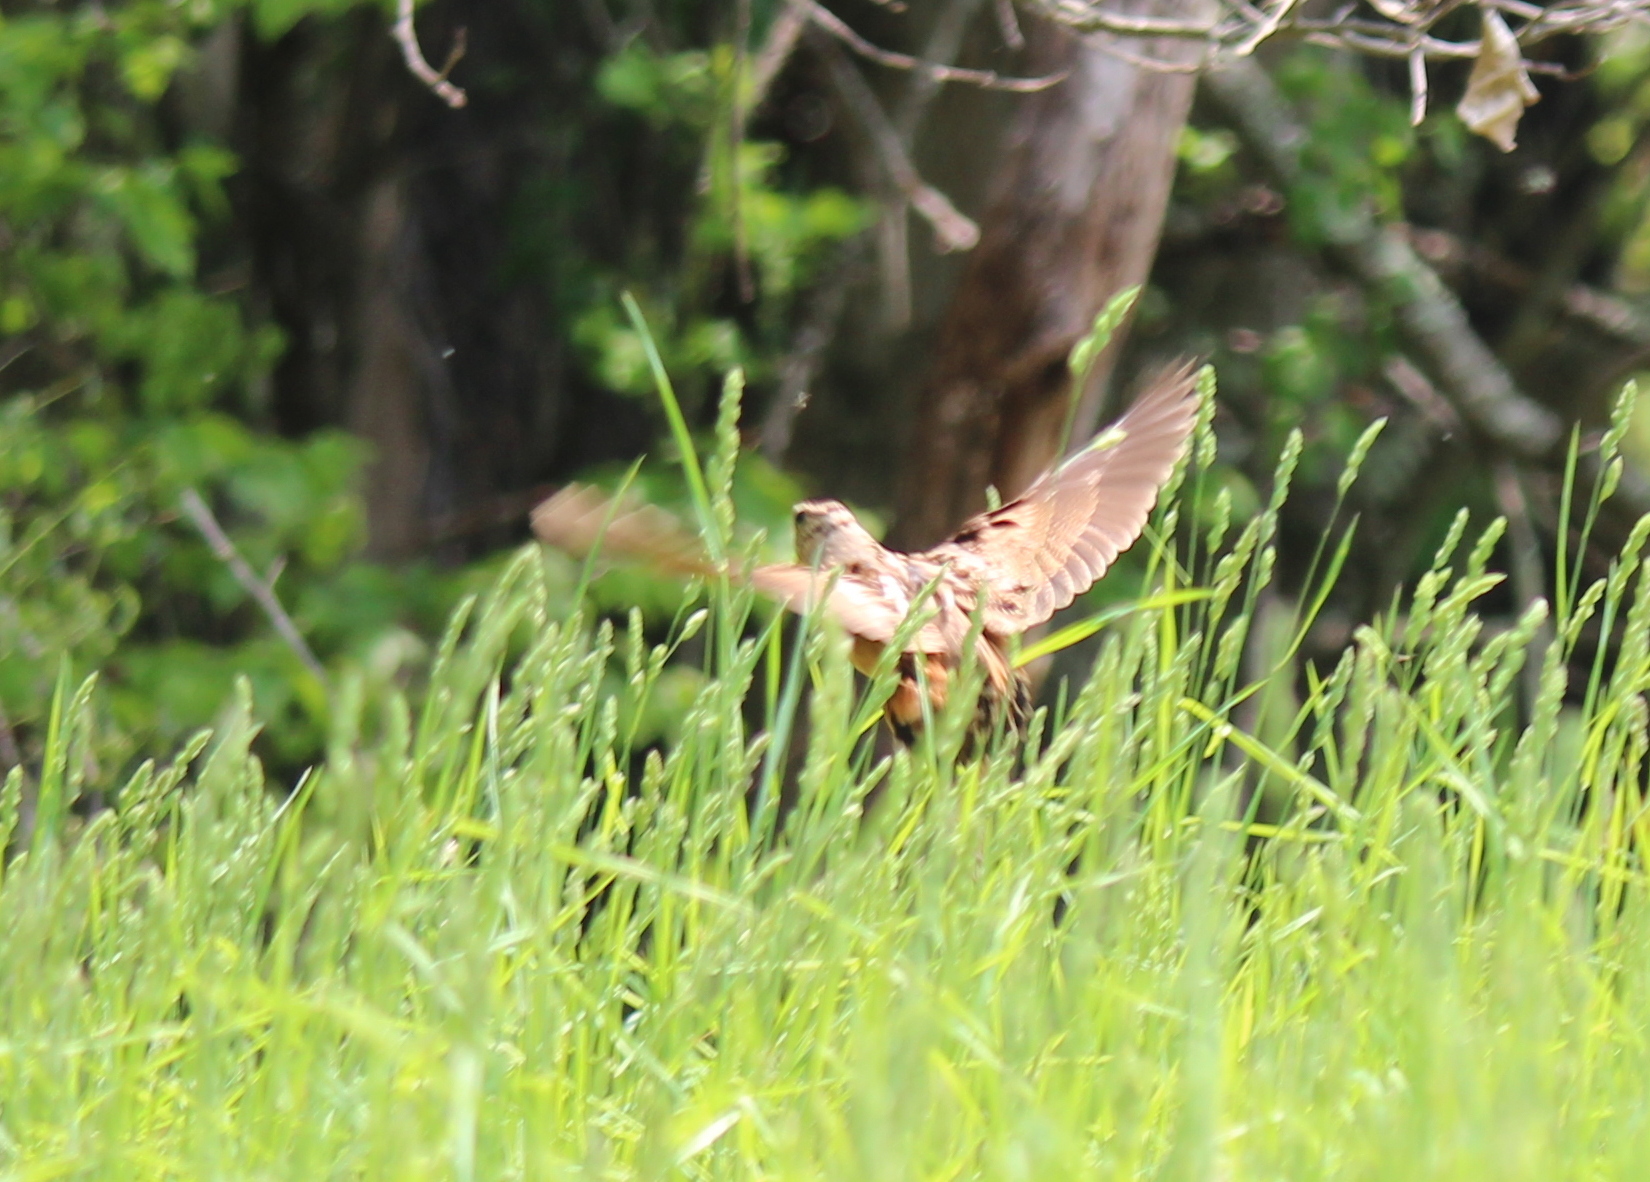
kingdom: Animalia
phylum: Chordata
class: Aves
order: Charadriiformes
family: Scolopacidae
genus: Scolopax
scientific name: Scolopax minor
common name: American woodcock
